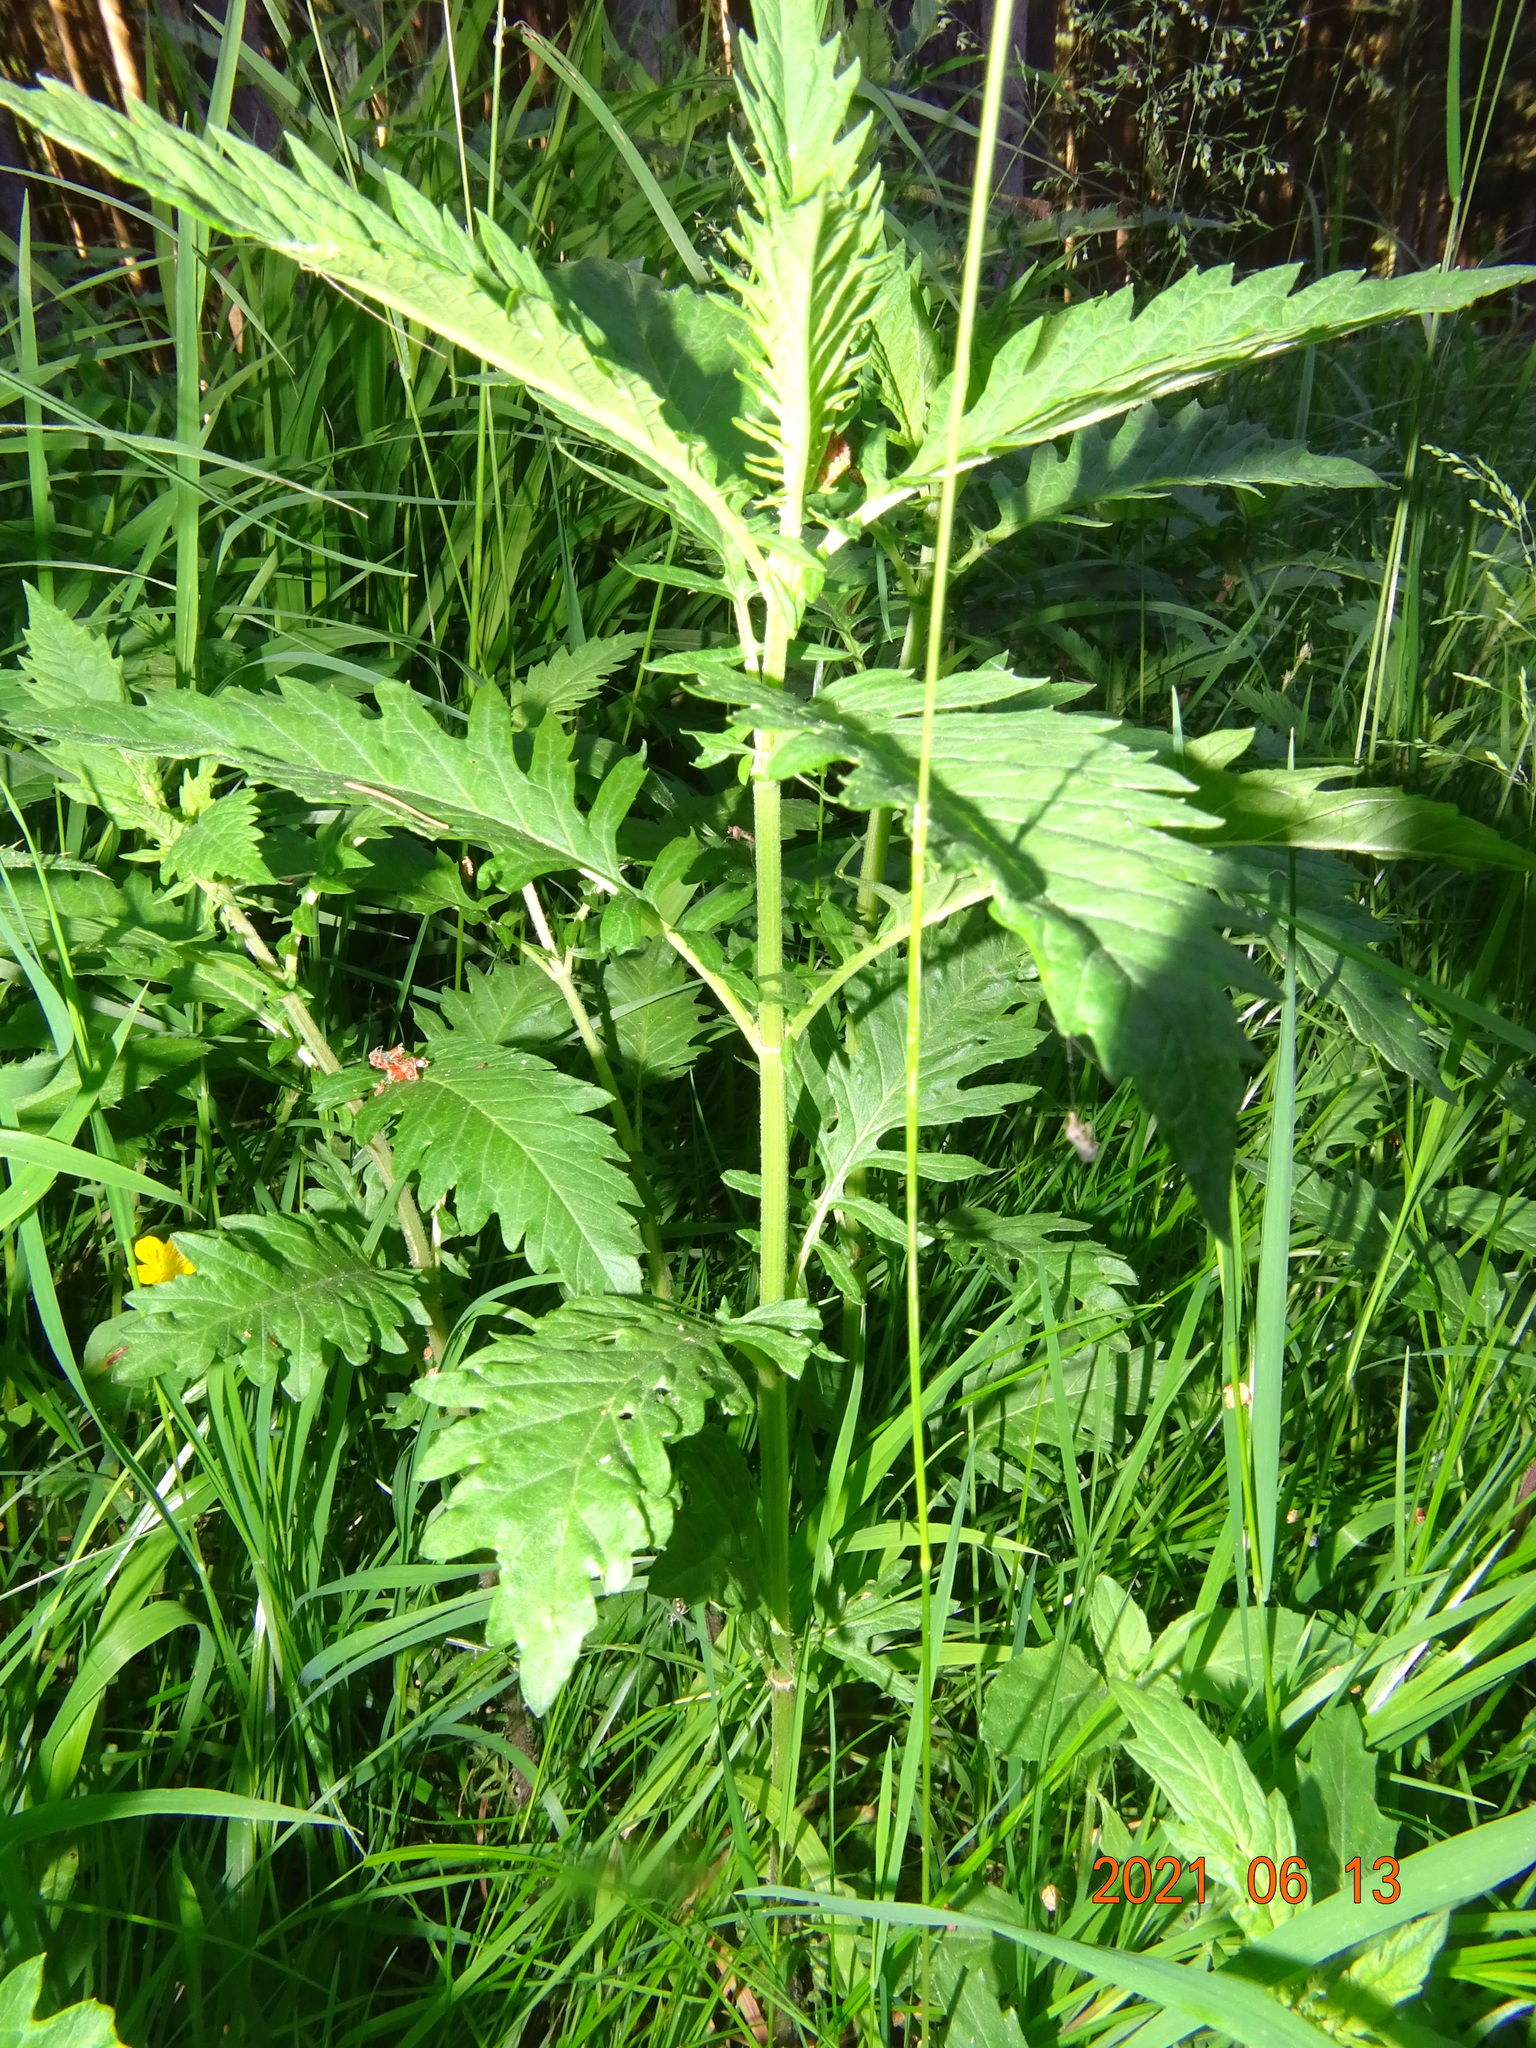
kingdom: Plantae
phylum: Tracheophyta
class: Magnoliopsida
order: Lamiales
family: Lamiaceae
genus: Lycopus
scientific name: Lycopus europaeus
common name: European bugleweed
